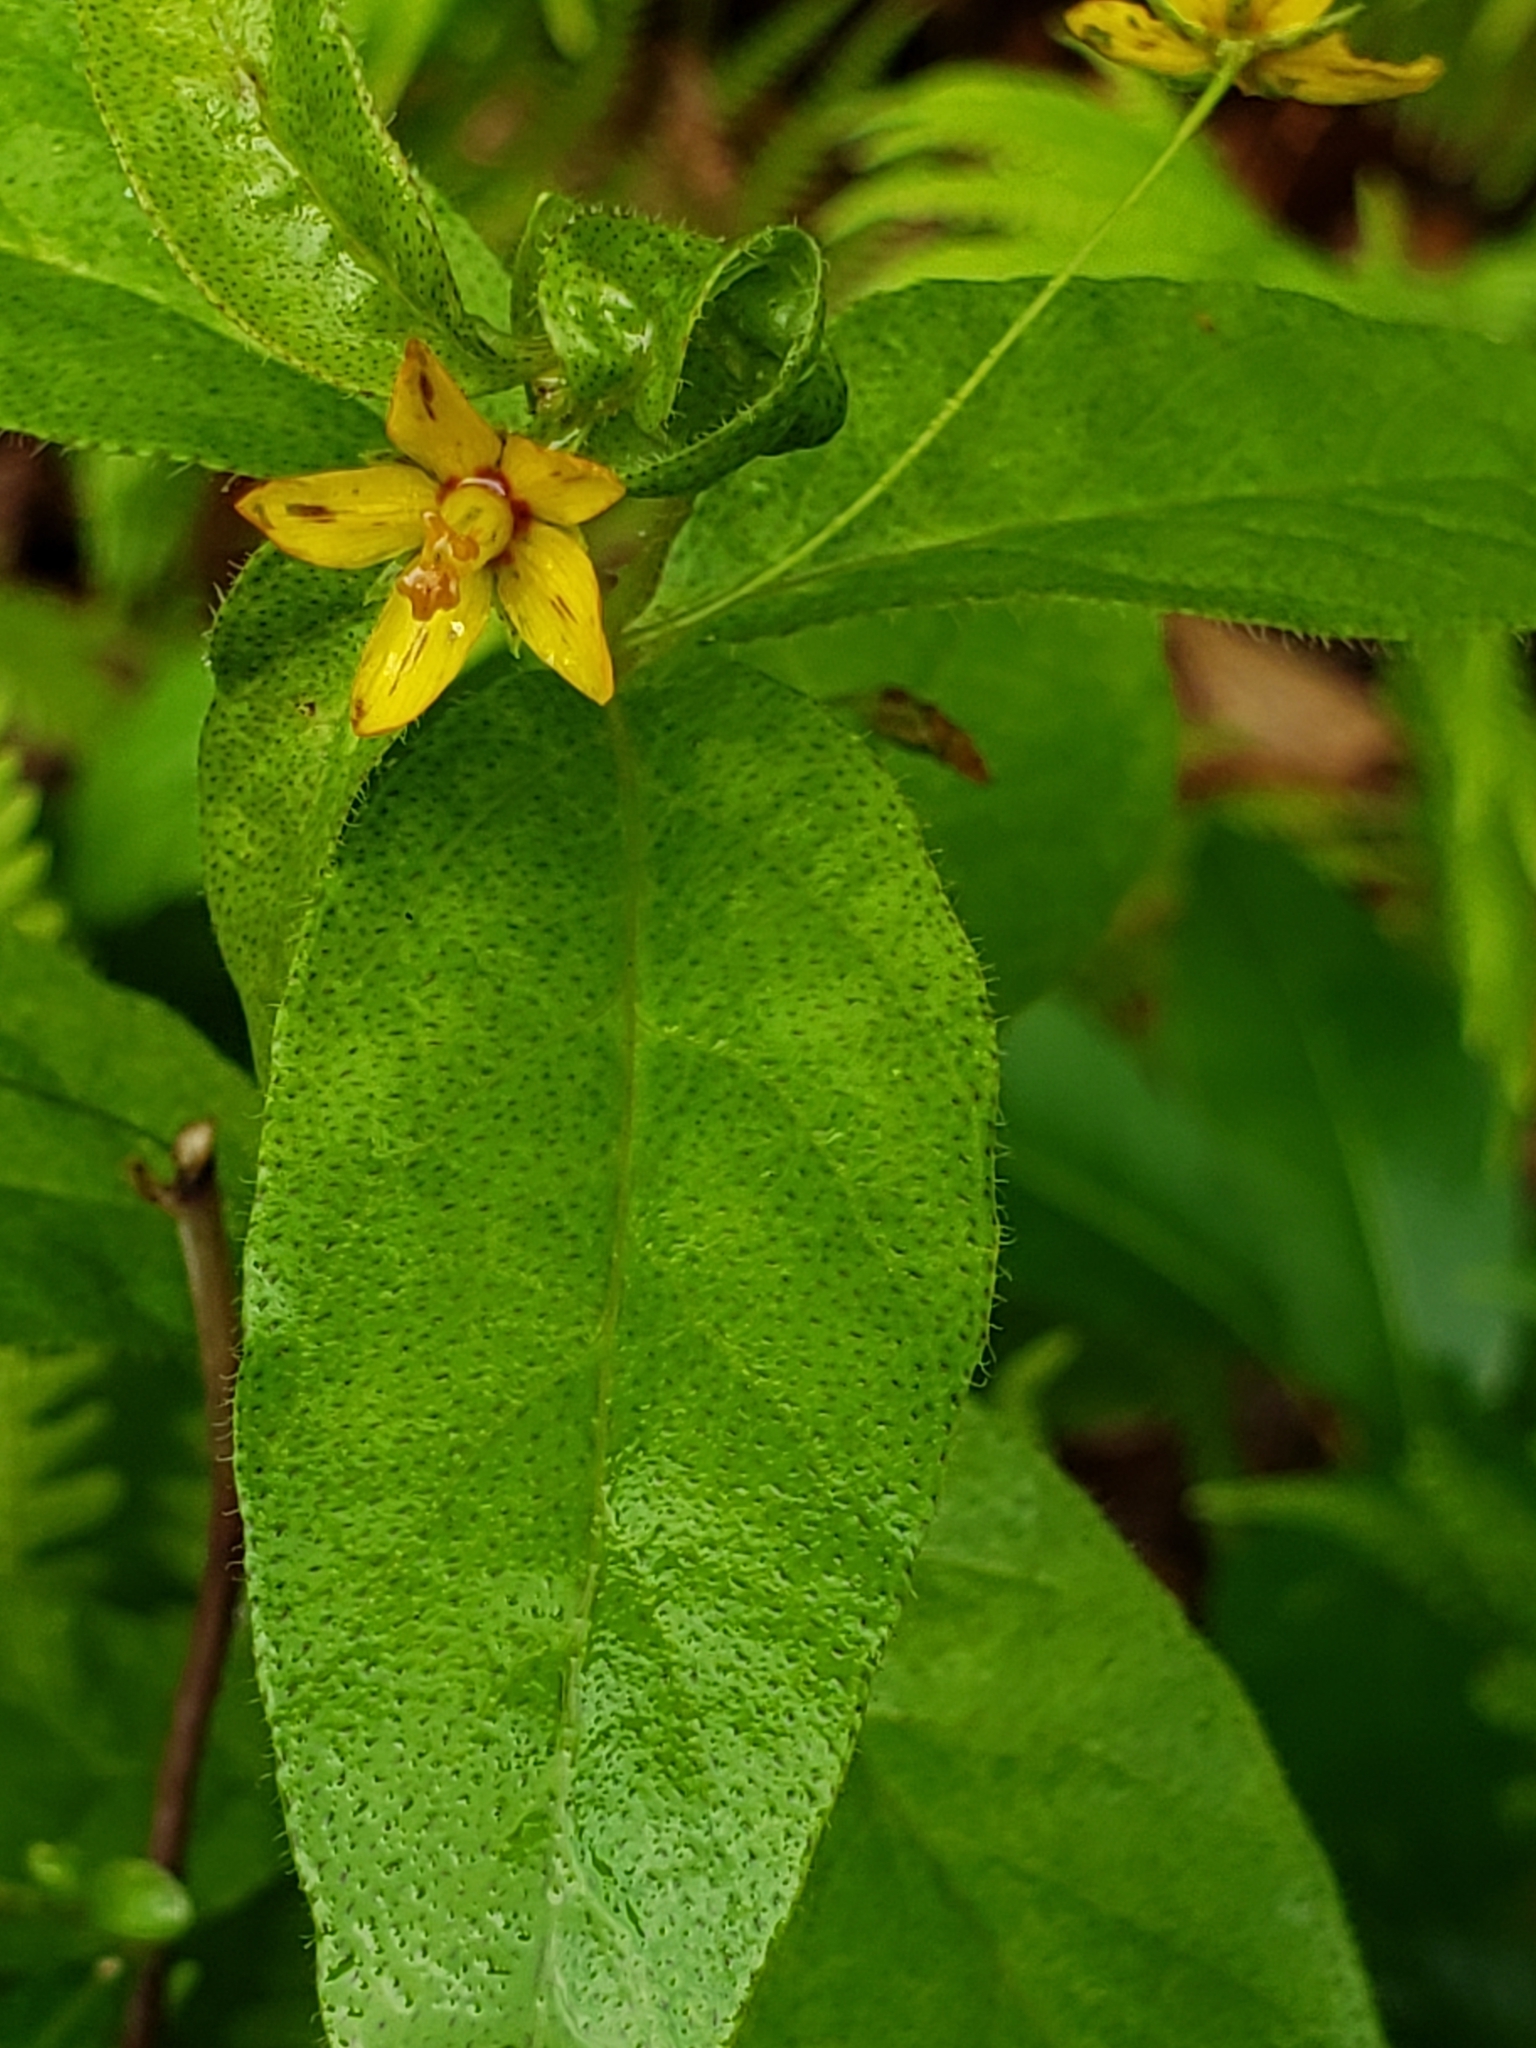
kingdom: Plantae
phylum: Tracheophyta
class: Magnoliopsida
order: Ericales
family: Primulaceae
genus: Lysimachia
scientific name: Lysimachia quadrifolia
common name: Whorled loosestrife
